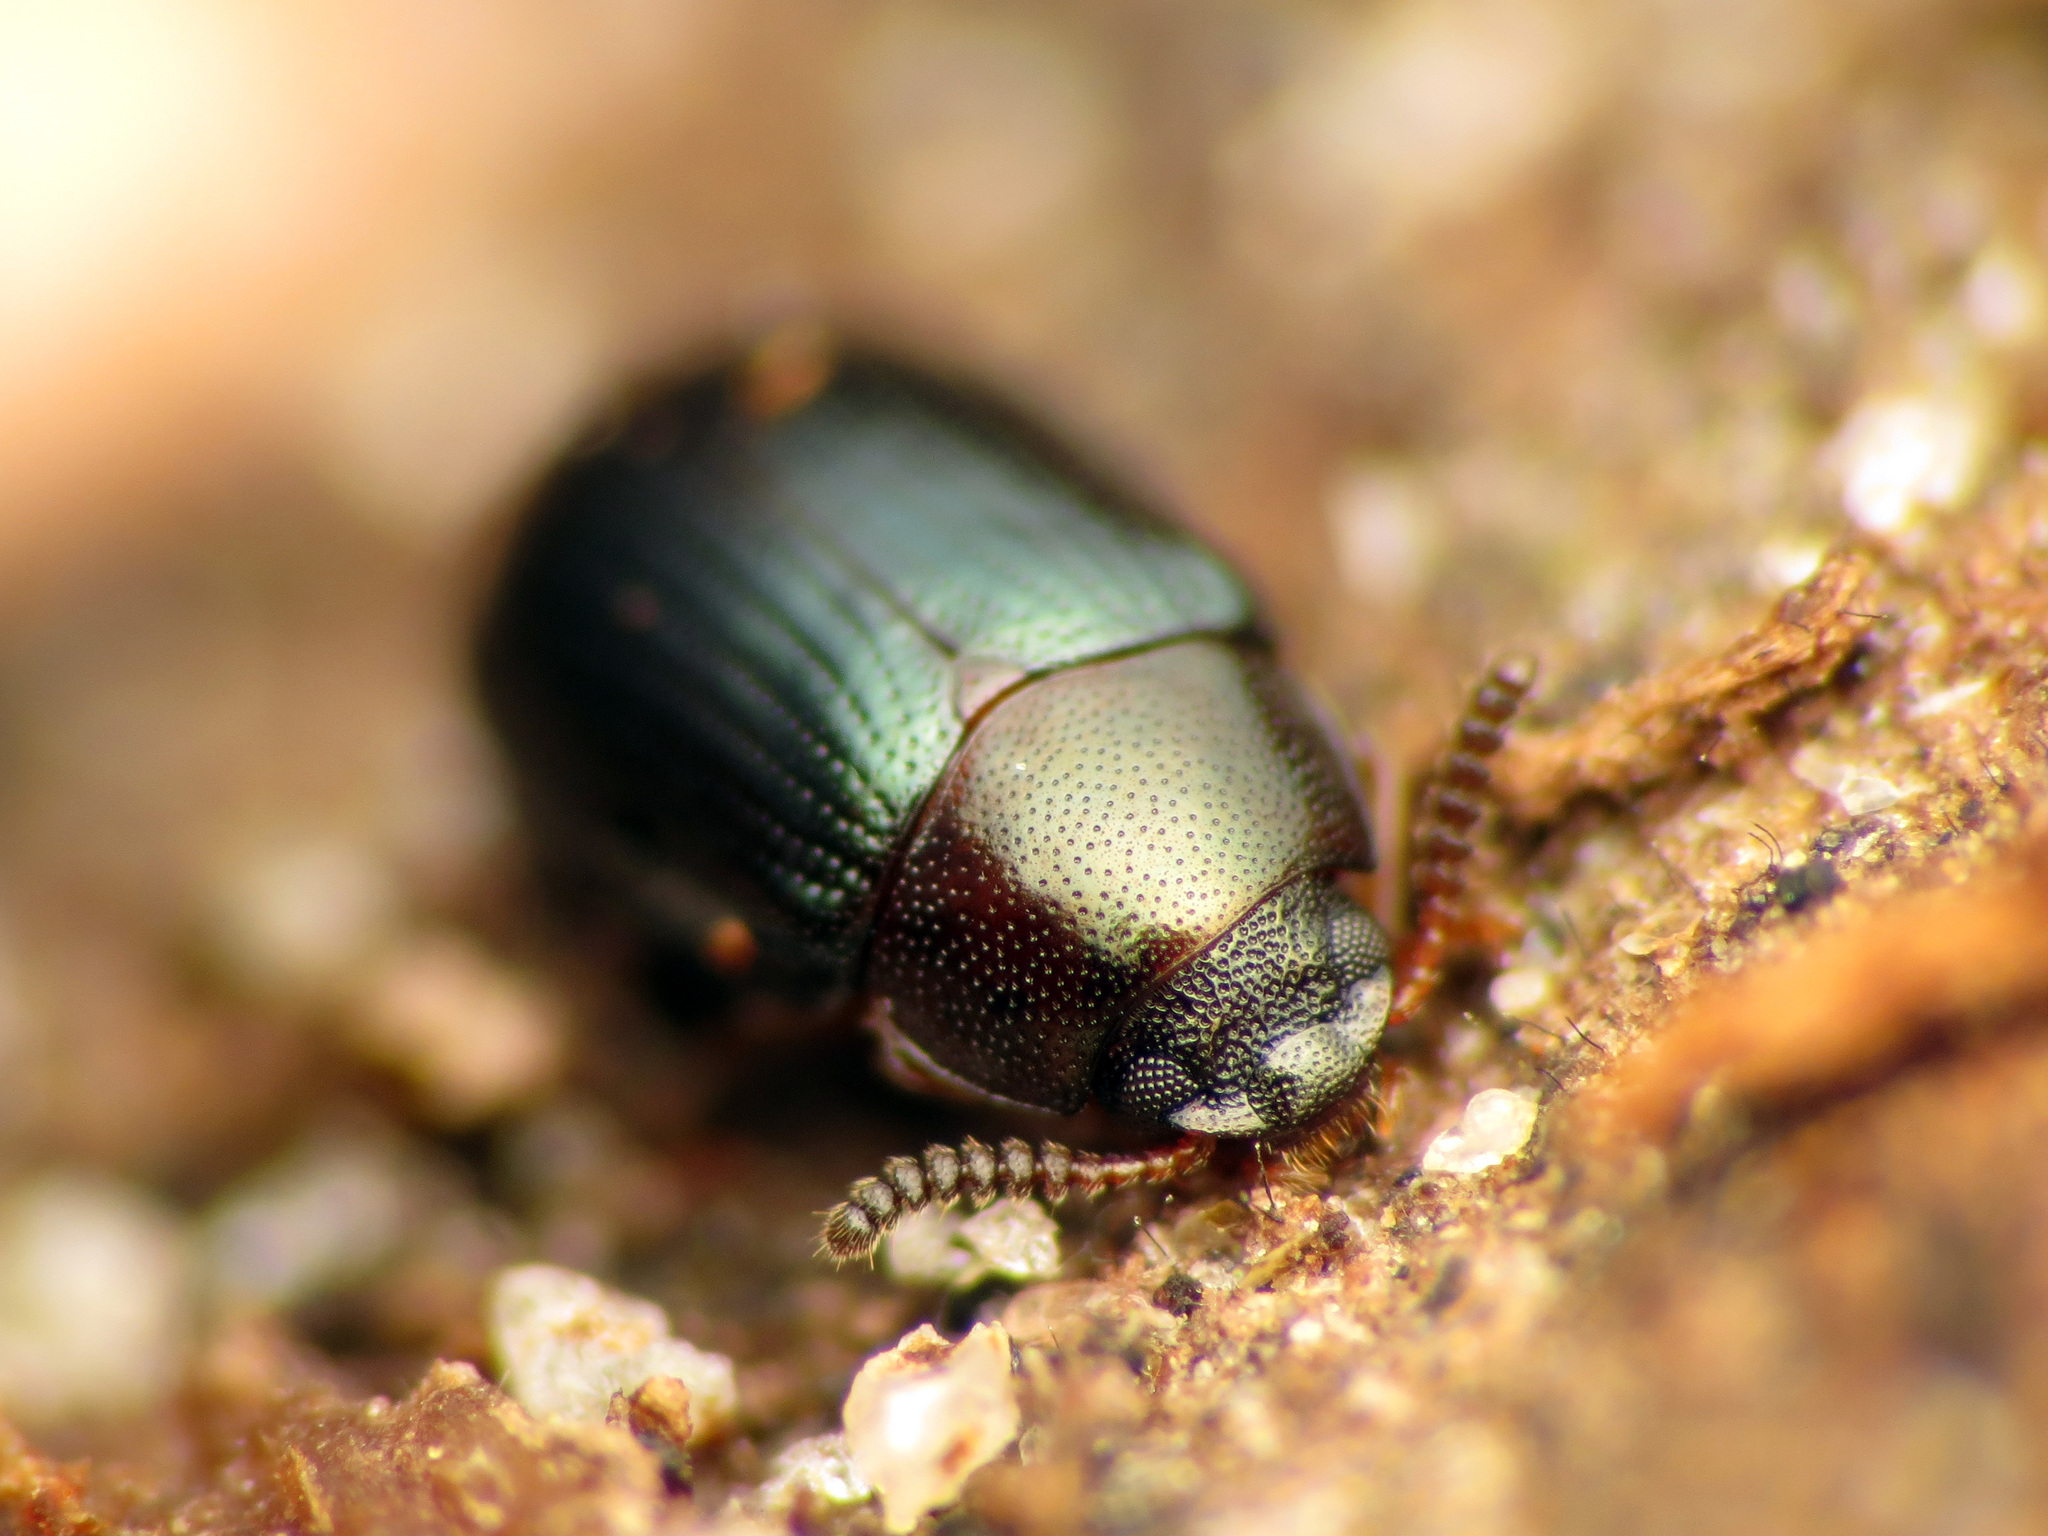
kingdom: Animalia
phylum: Arthropoda
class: Insecta
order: Coleoptera
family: Tenebrionidae
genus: Neomida
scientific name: Neomida bicornis
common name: Two-horned darkling beetle
